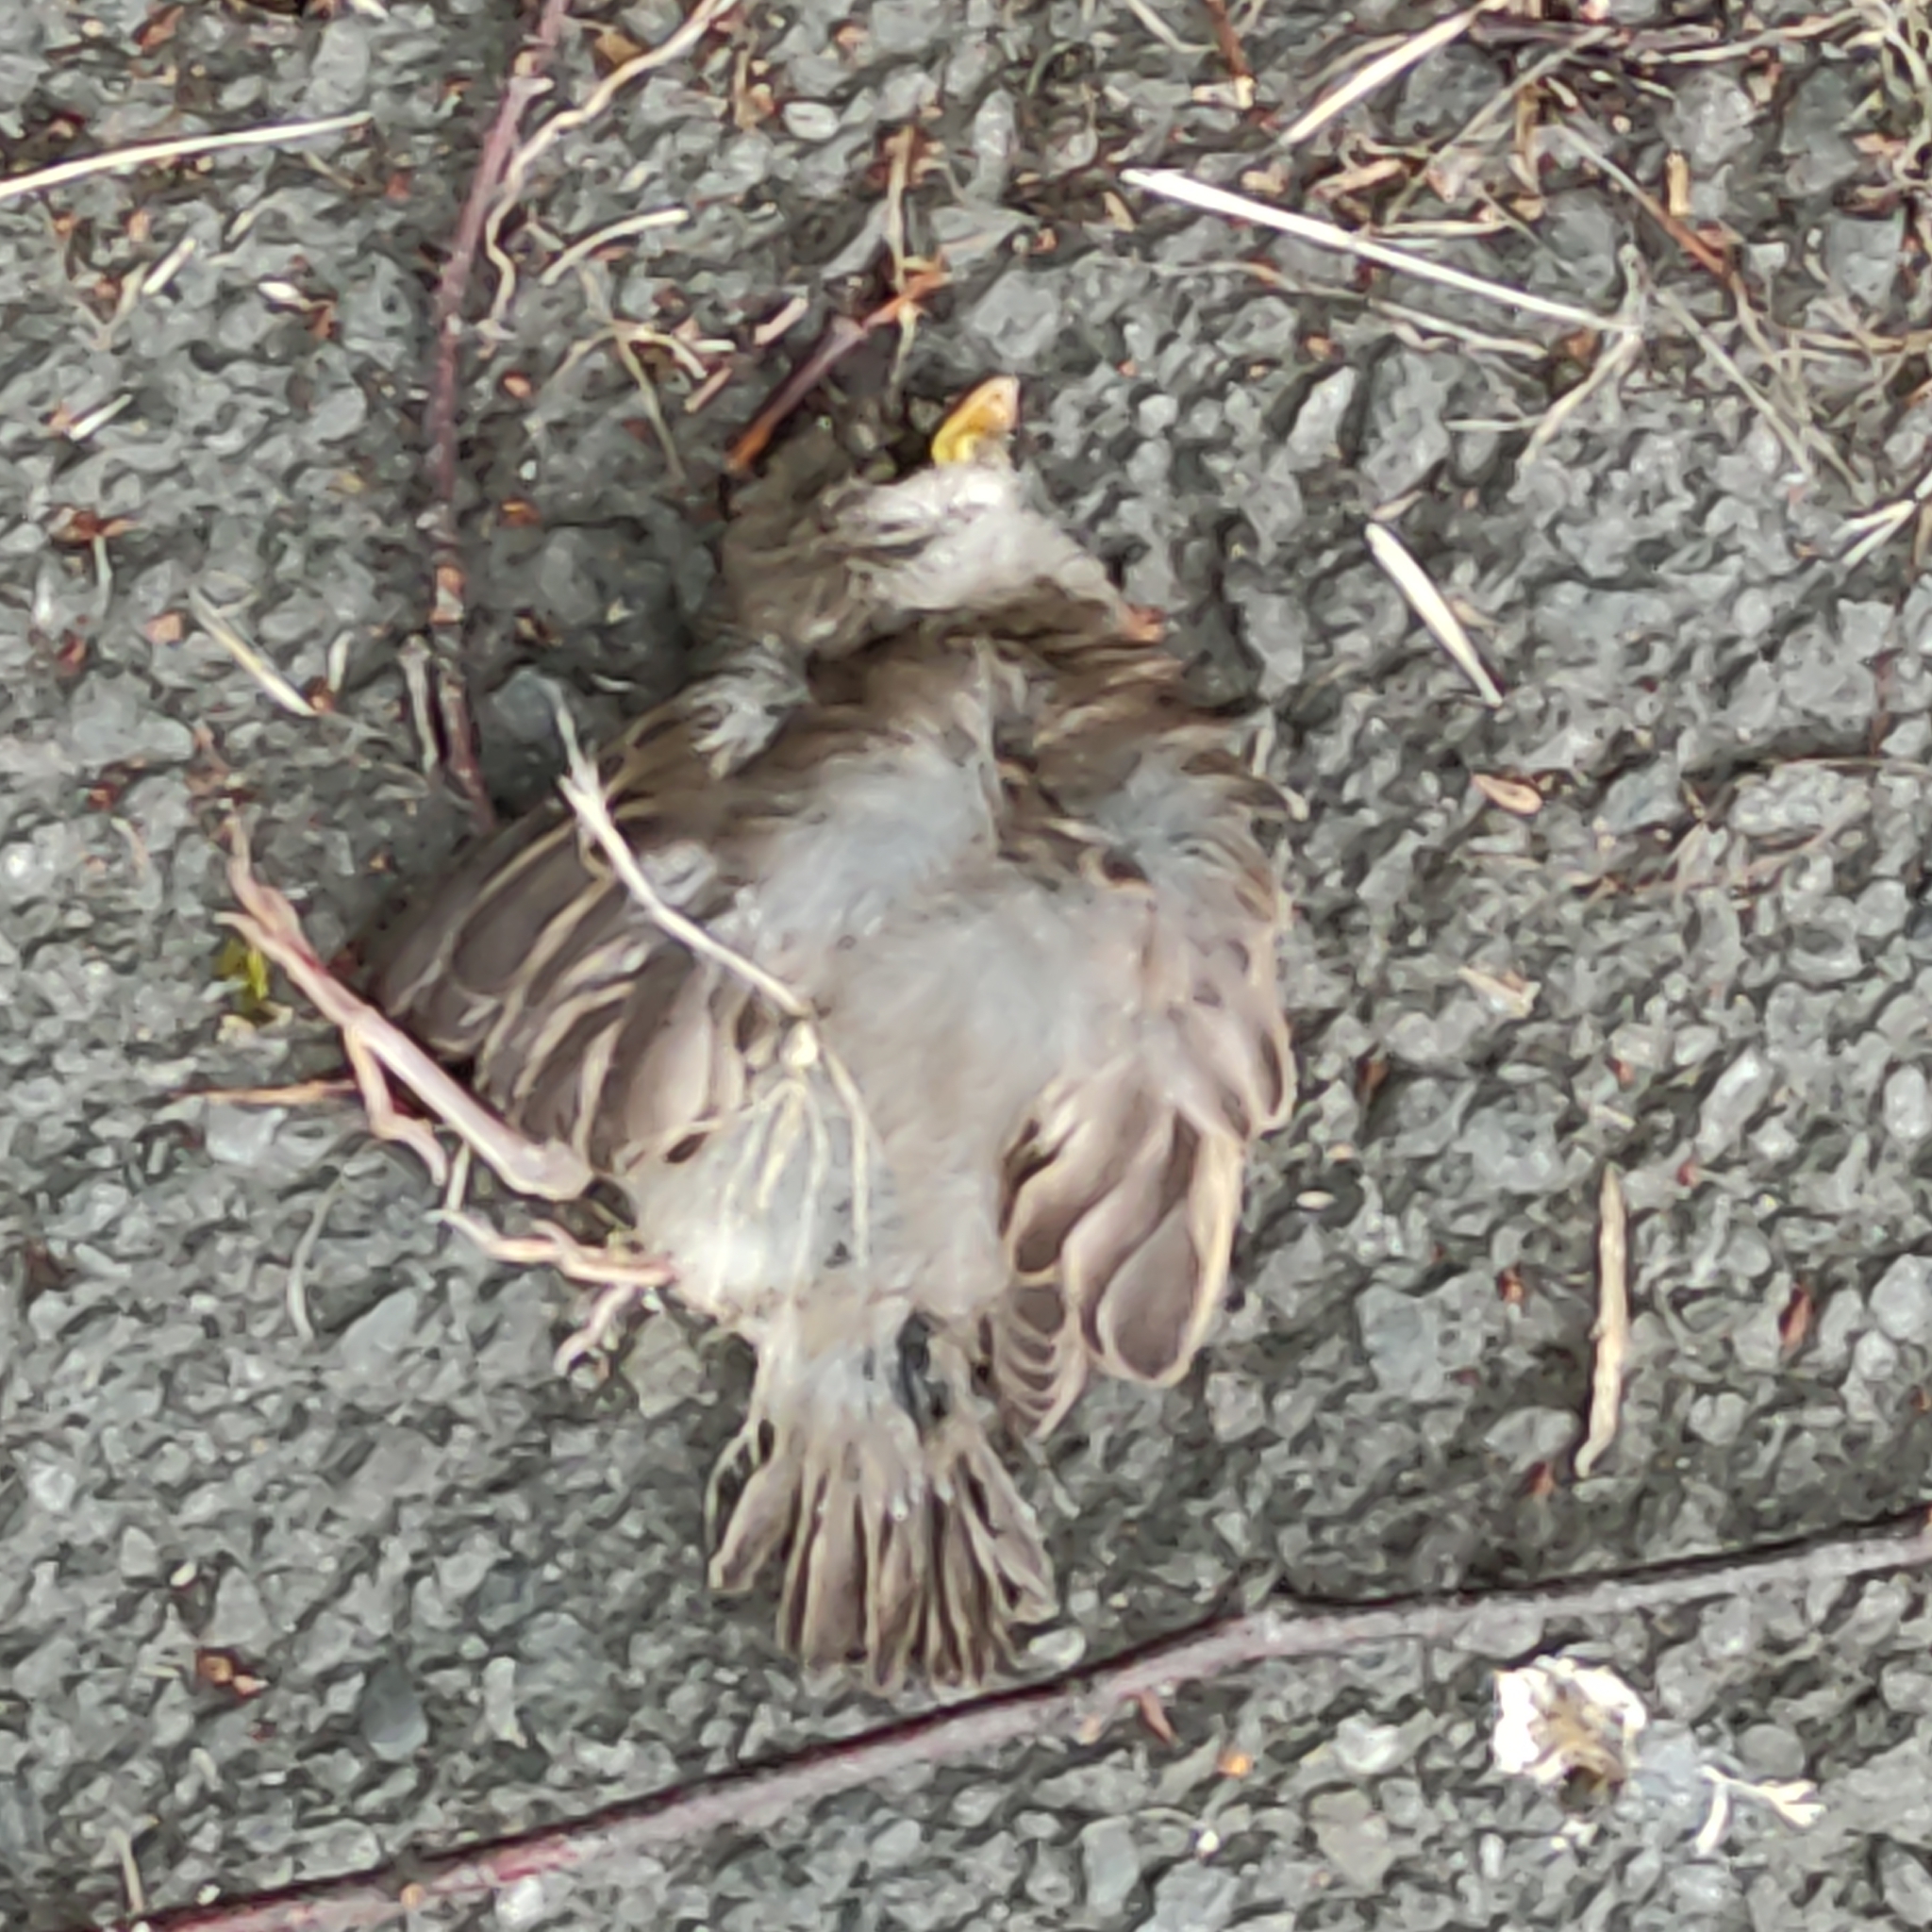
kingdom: Animalia
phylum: Chordata
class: Aves
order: Passeriformes
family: Passeridae
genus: Passer
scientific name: Passer domesticus
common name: House sparrow
